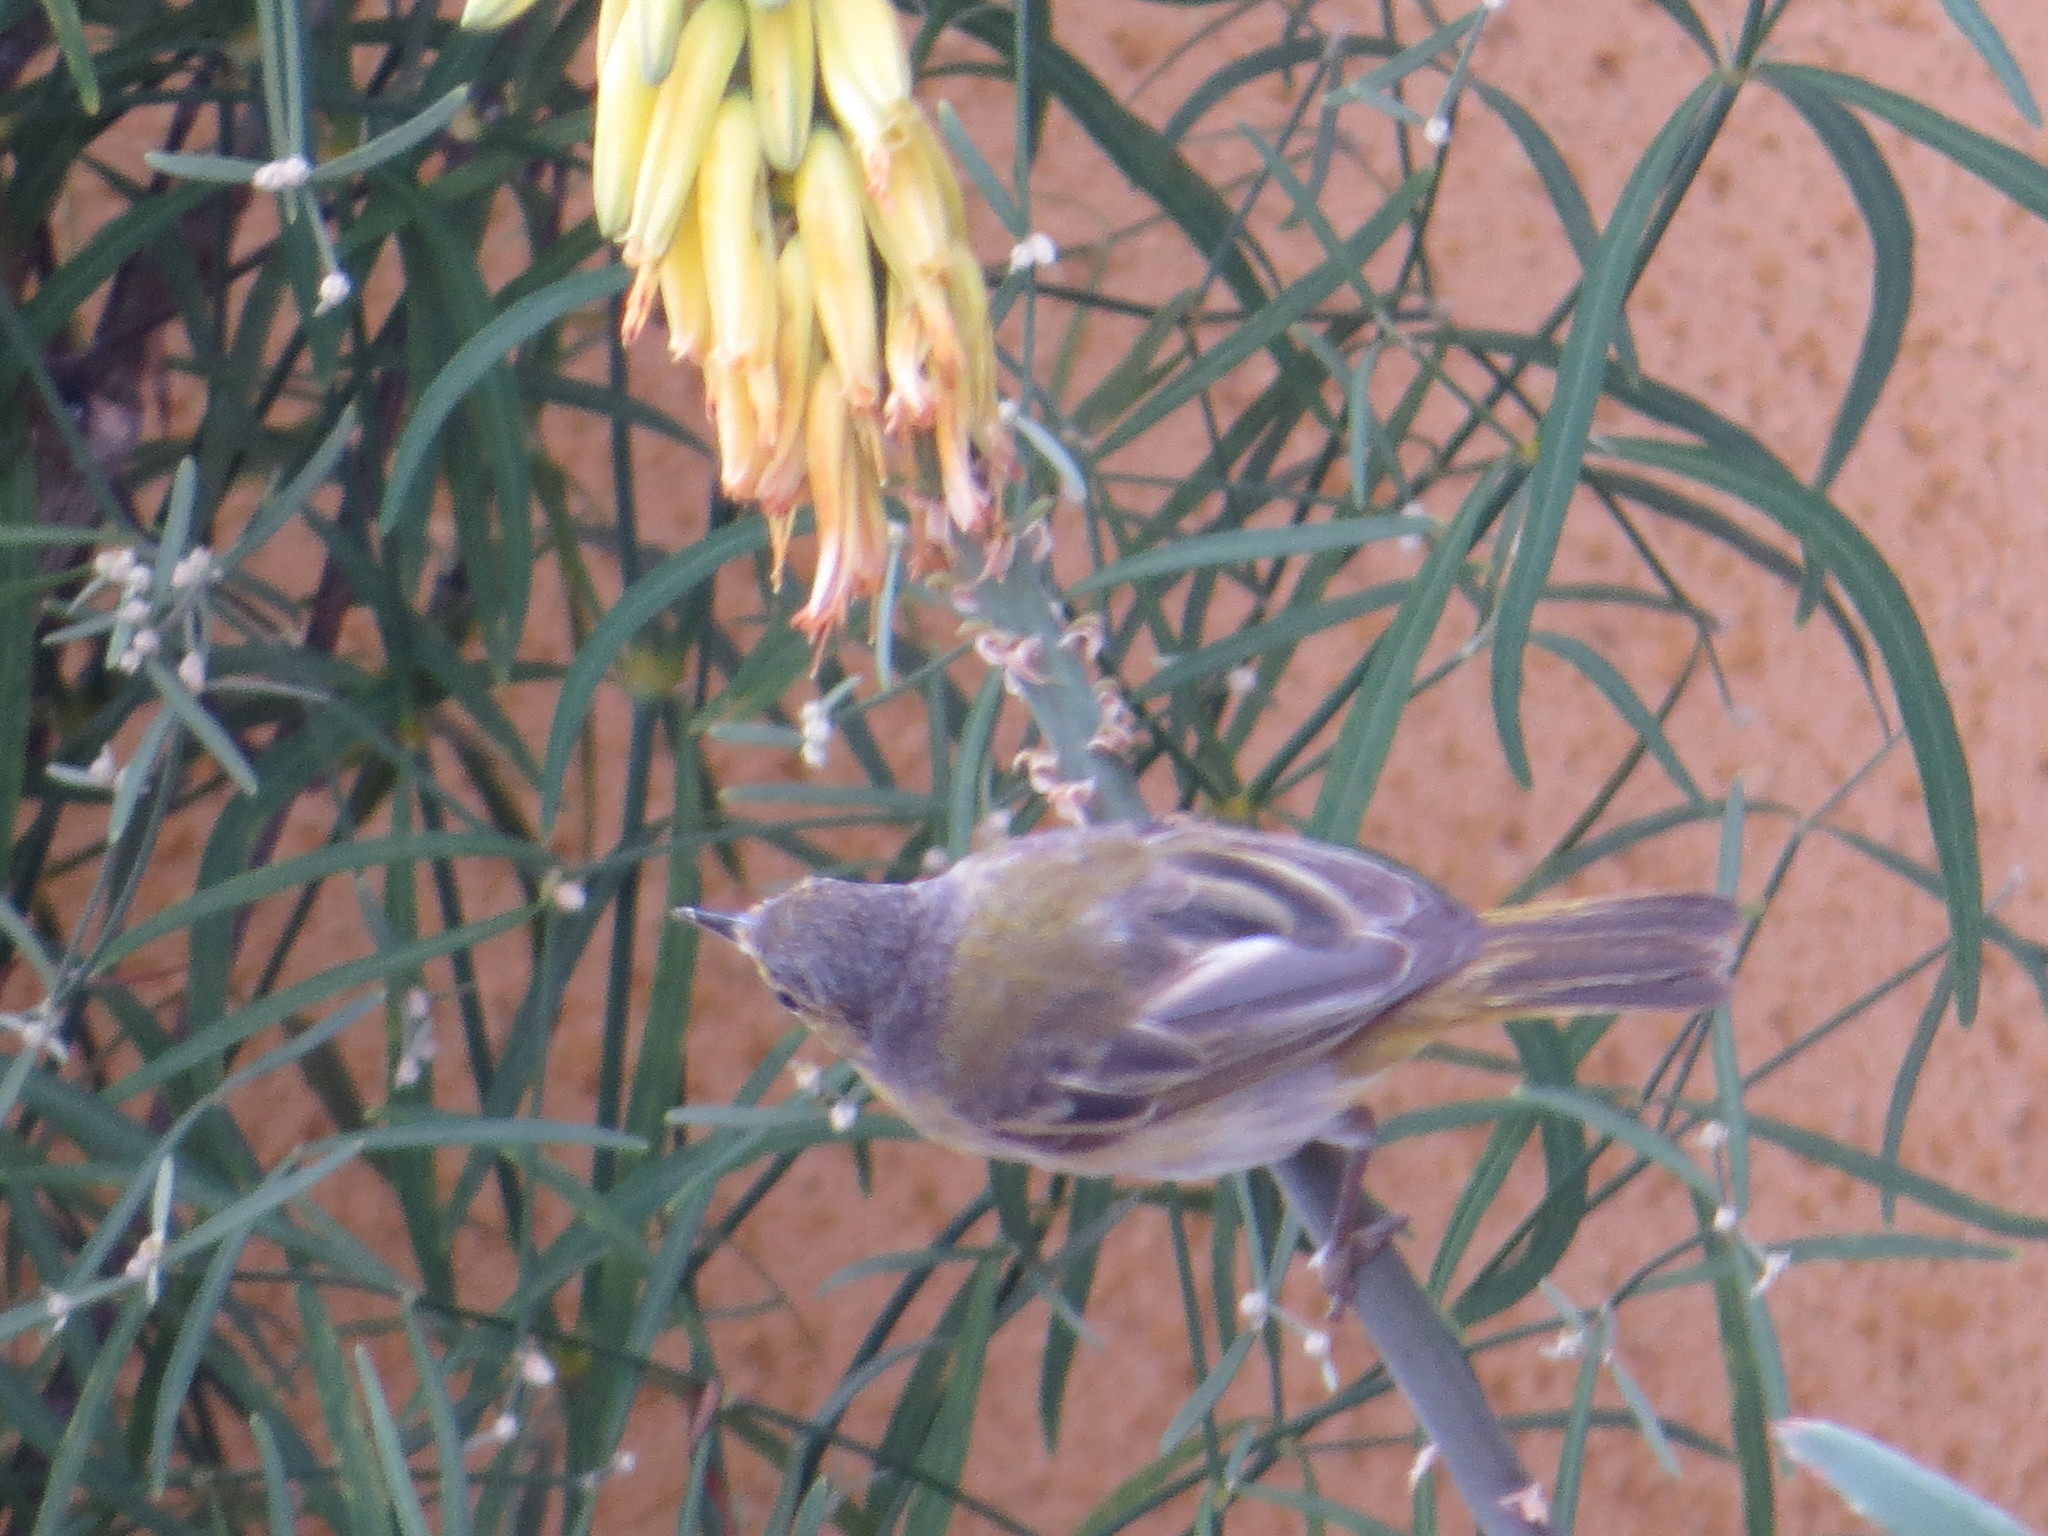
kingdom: Animalia
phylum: Chordata
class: Aves
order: Passeriformes
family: Parulidae
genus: Setophaga
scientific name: Setophaga petechia
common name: Yellow warbler
